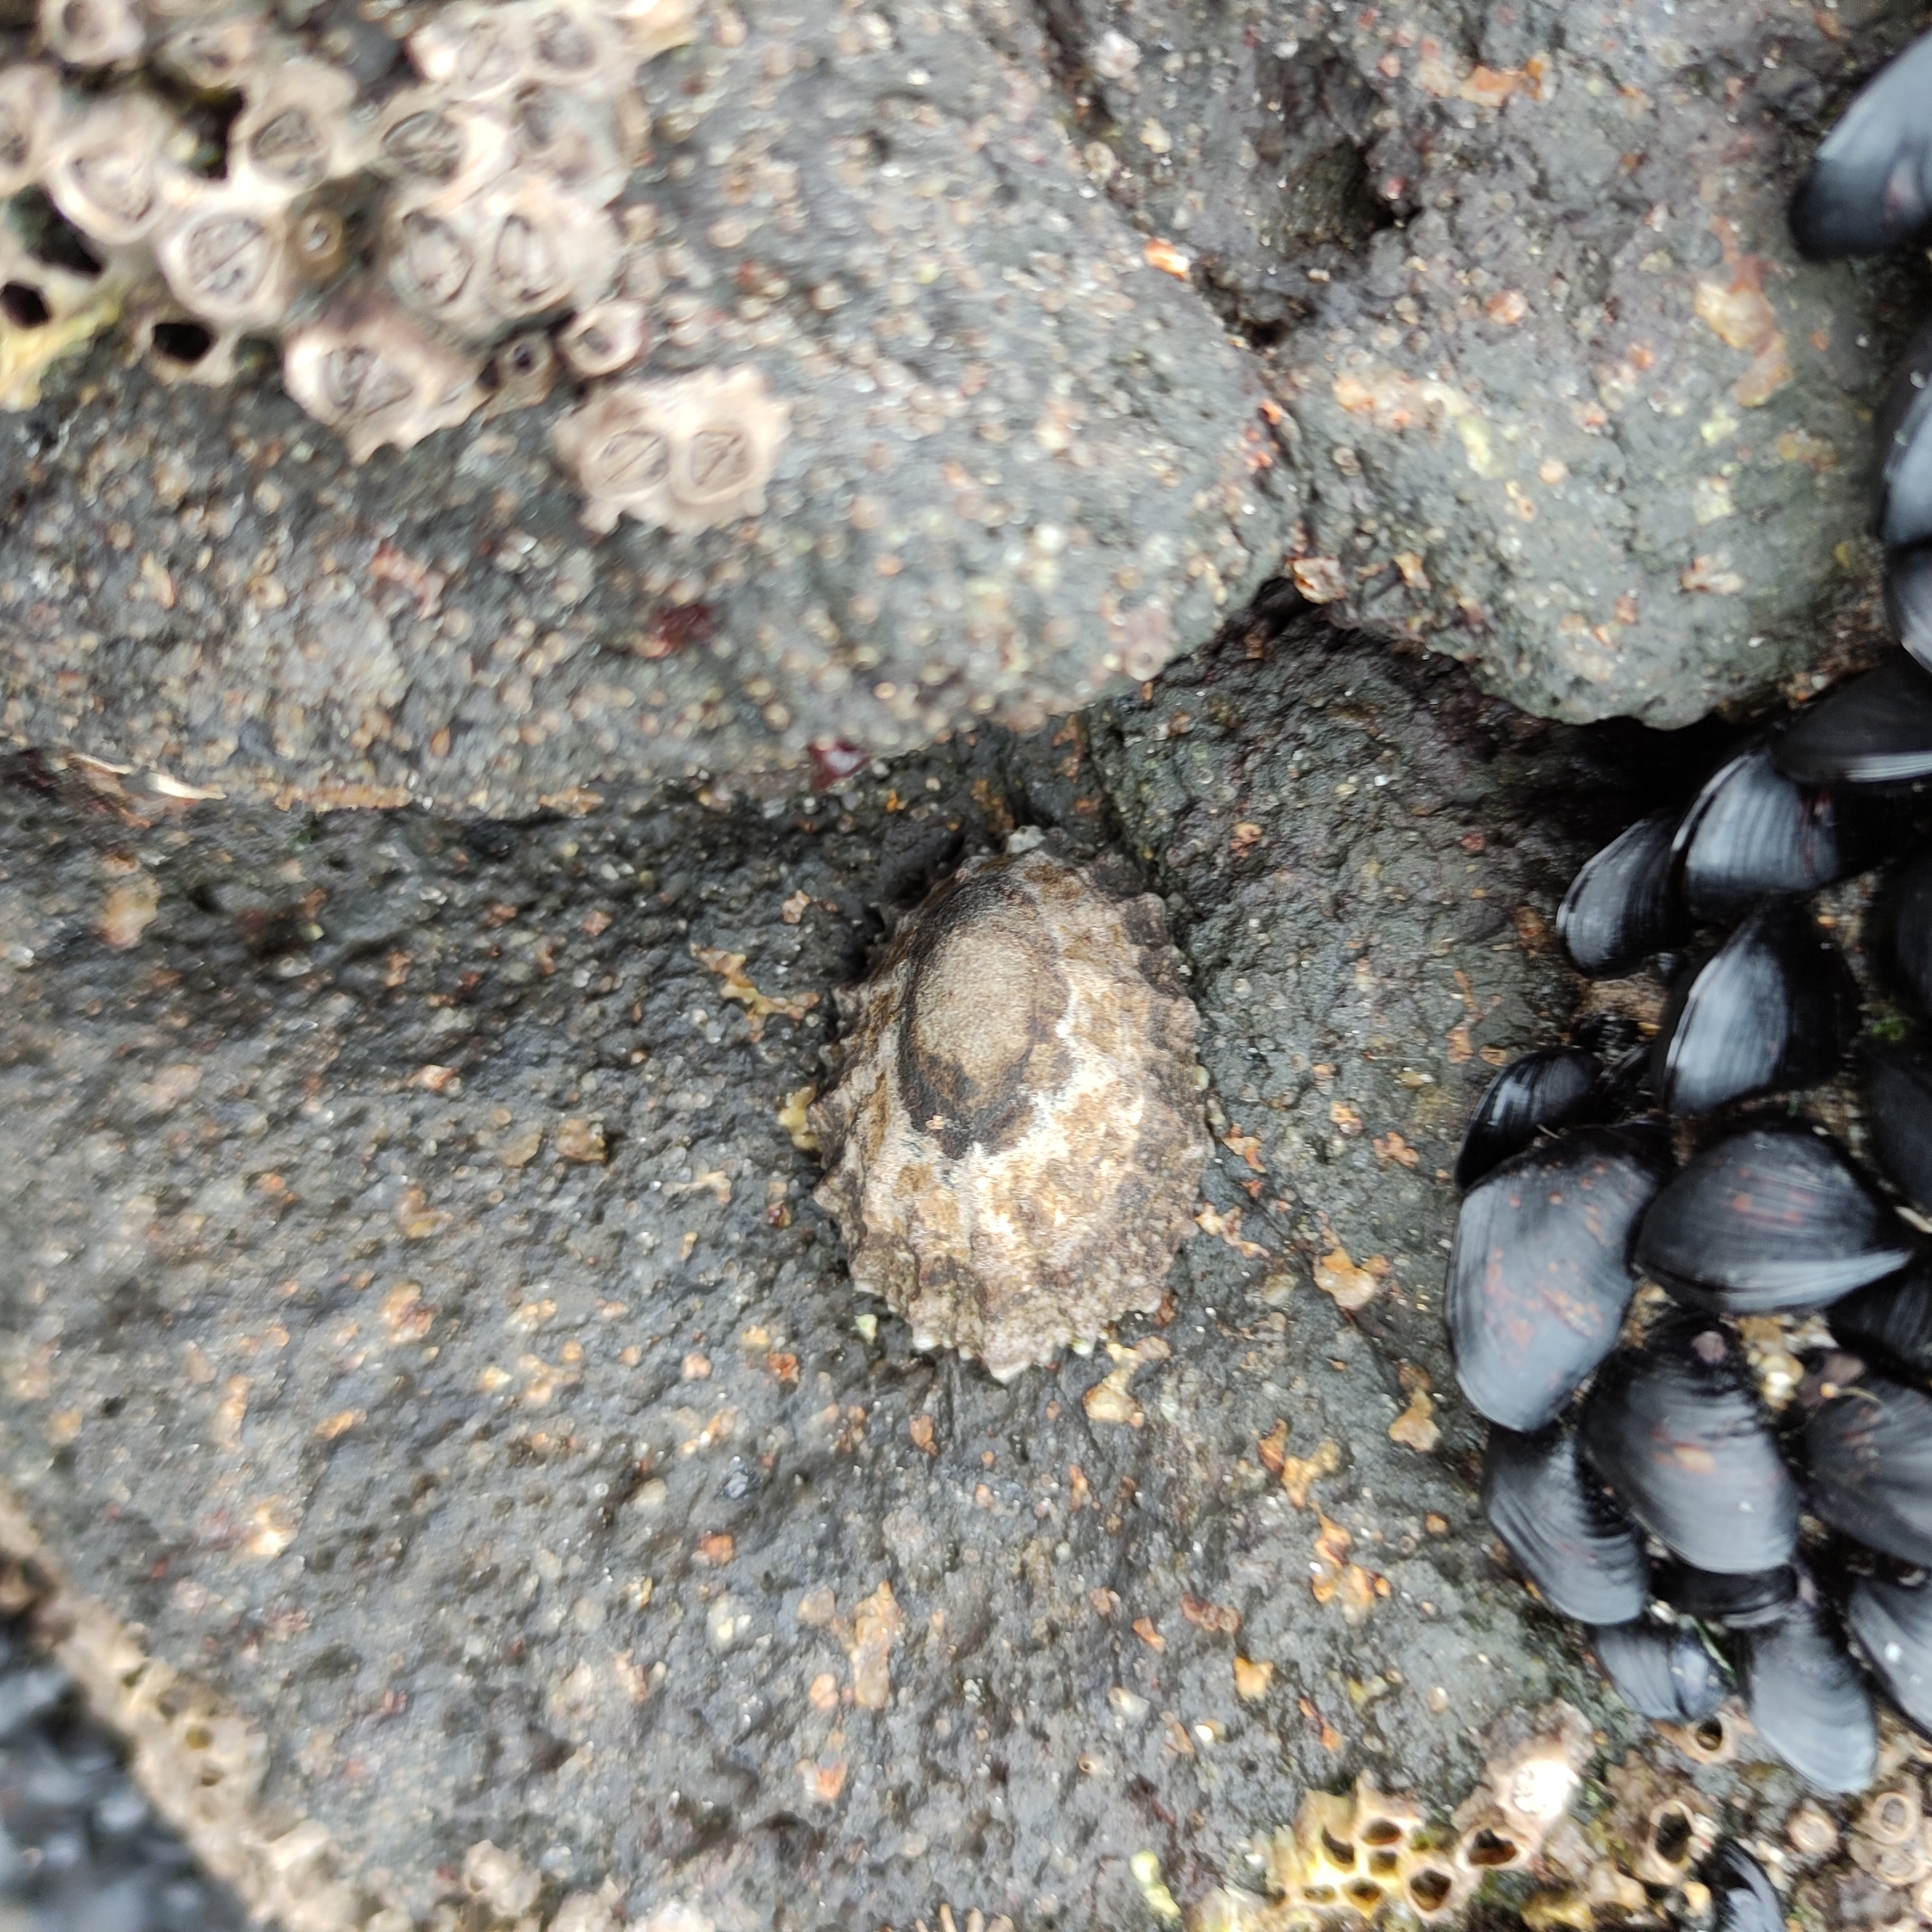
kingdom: Animalia
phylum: Mollusca
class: Gastropoda
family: Nacellidae
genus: Cellana
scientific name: Cellana ornata
